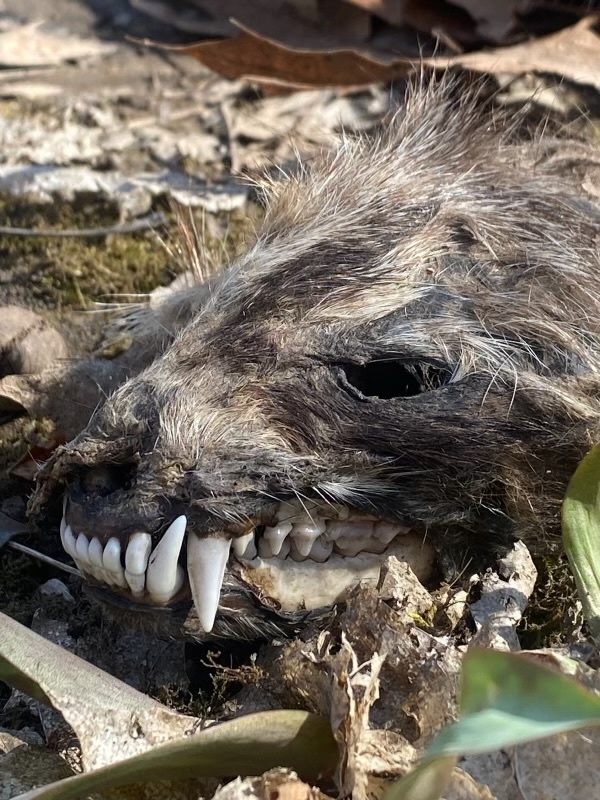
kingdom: Animalia
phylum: Chordata
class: Mammalia
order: Carnivora
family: Procyonidae
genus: Procyon
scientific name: Procyon lotor
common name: Raccoon
